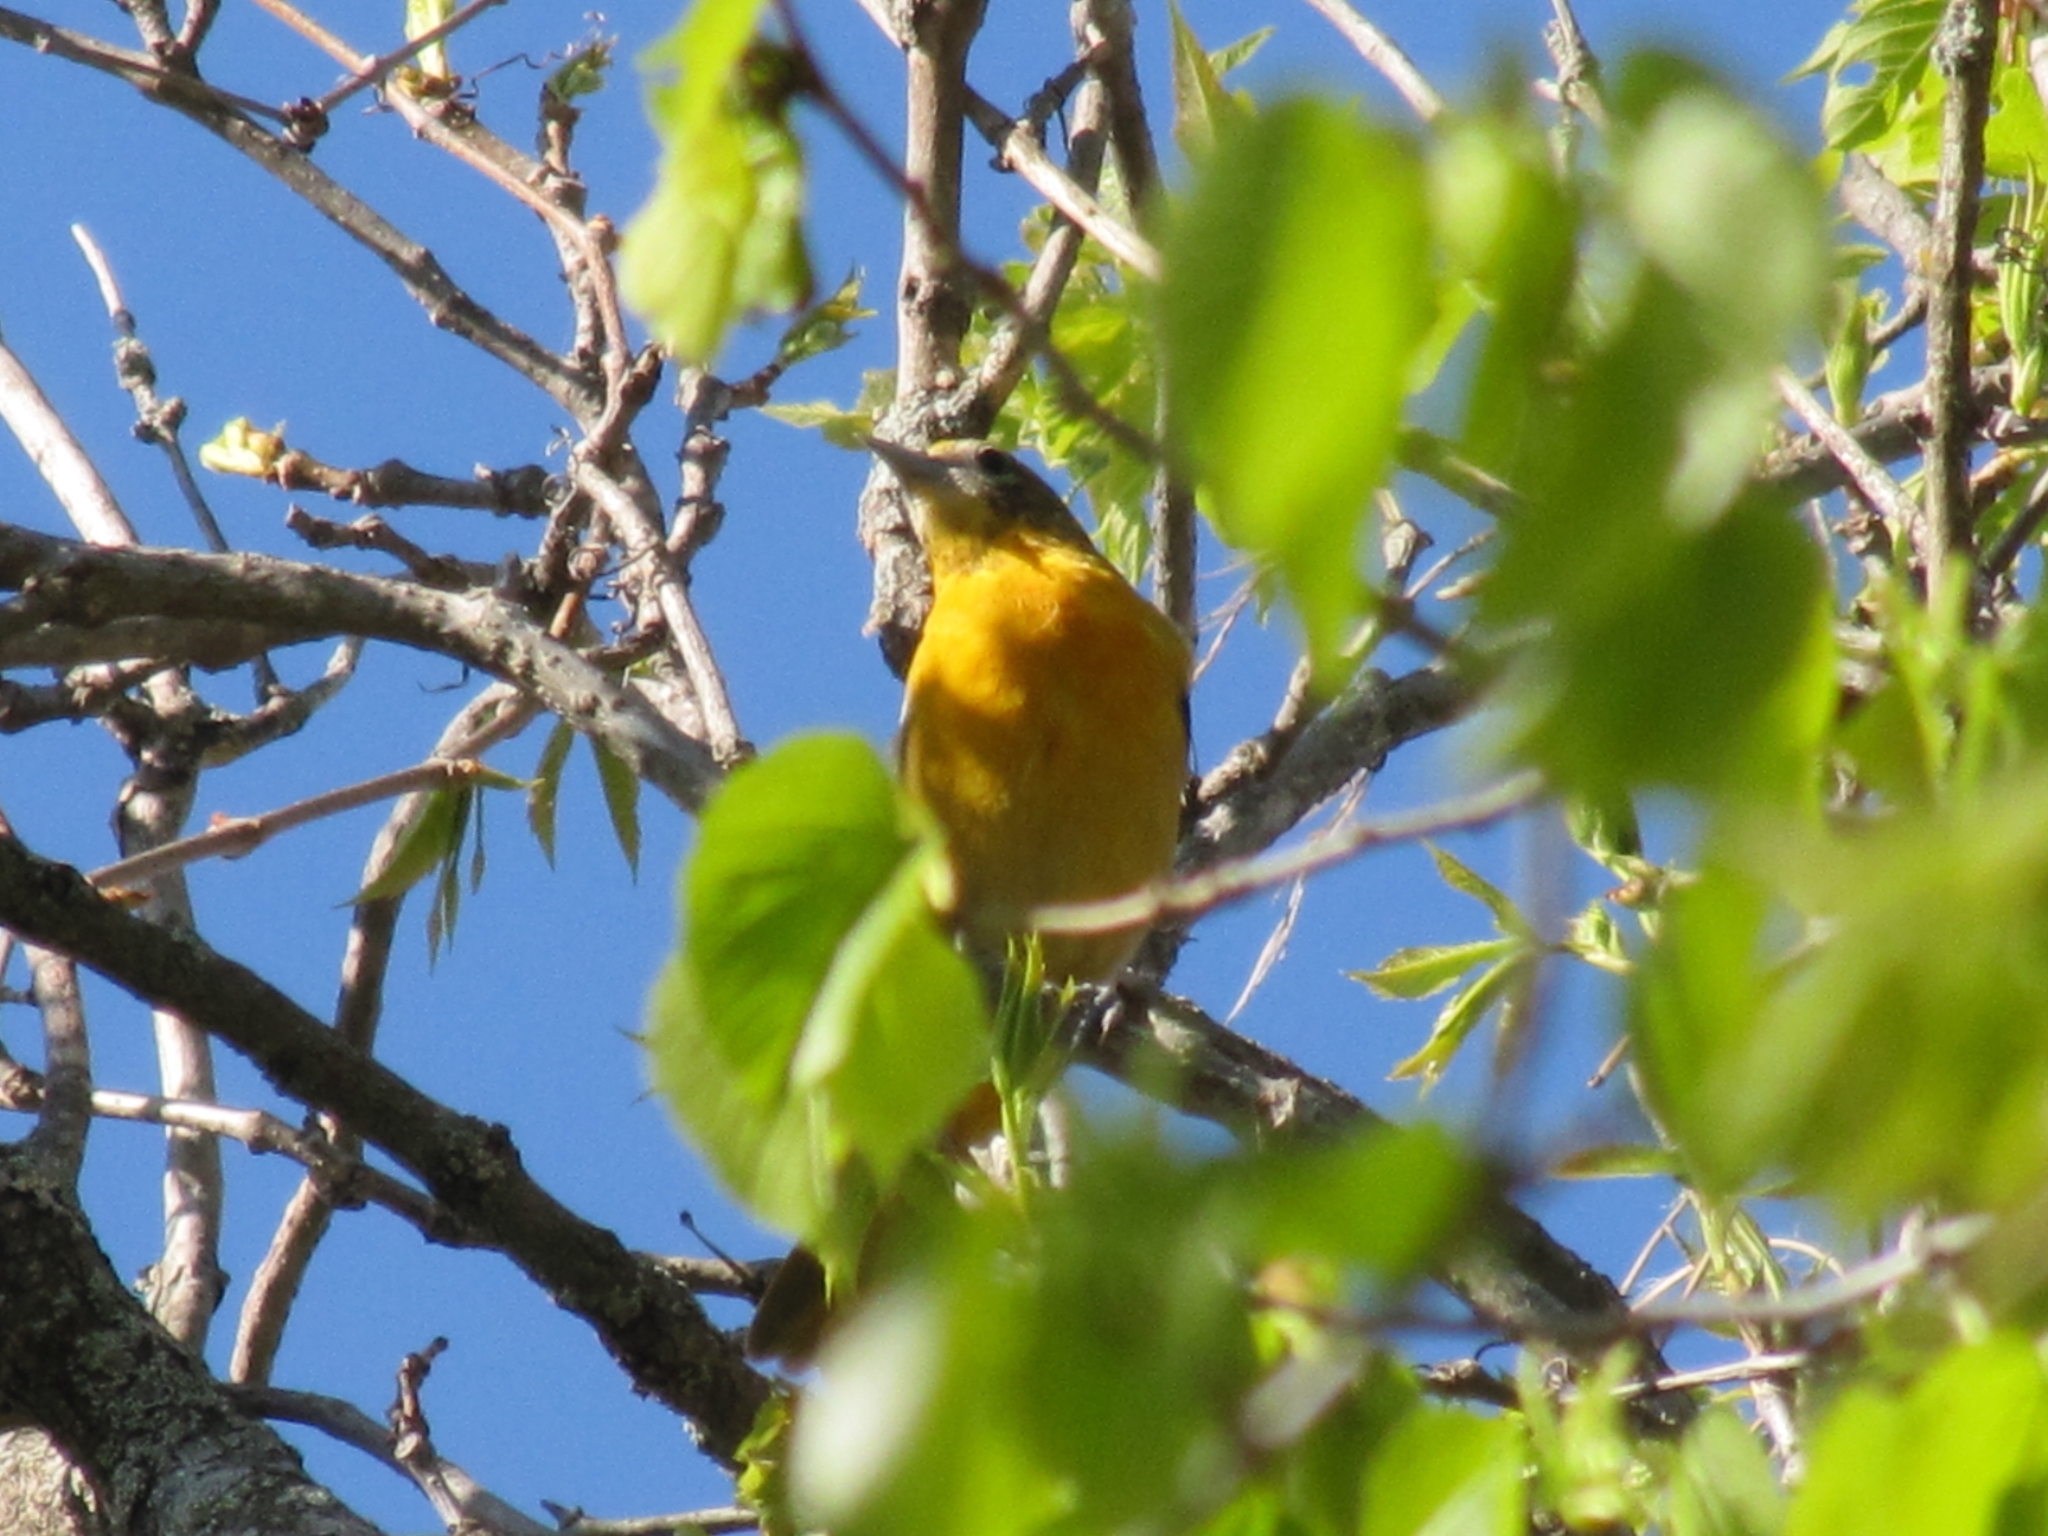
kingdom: Animalia
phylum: Chordata
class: Aves
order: Passeriformes
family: Icteridae
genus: Icterus
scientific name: Icterus galbula
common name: Baltimore oriole
